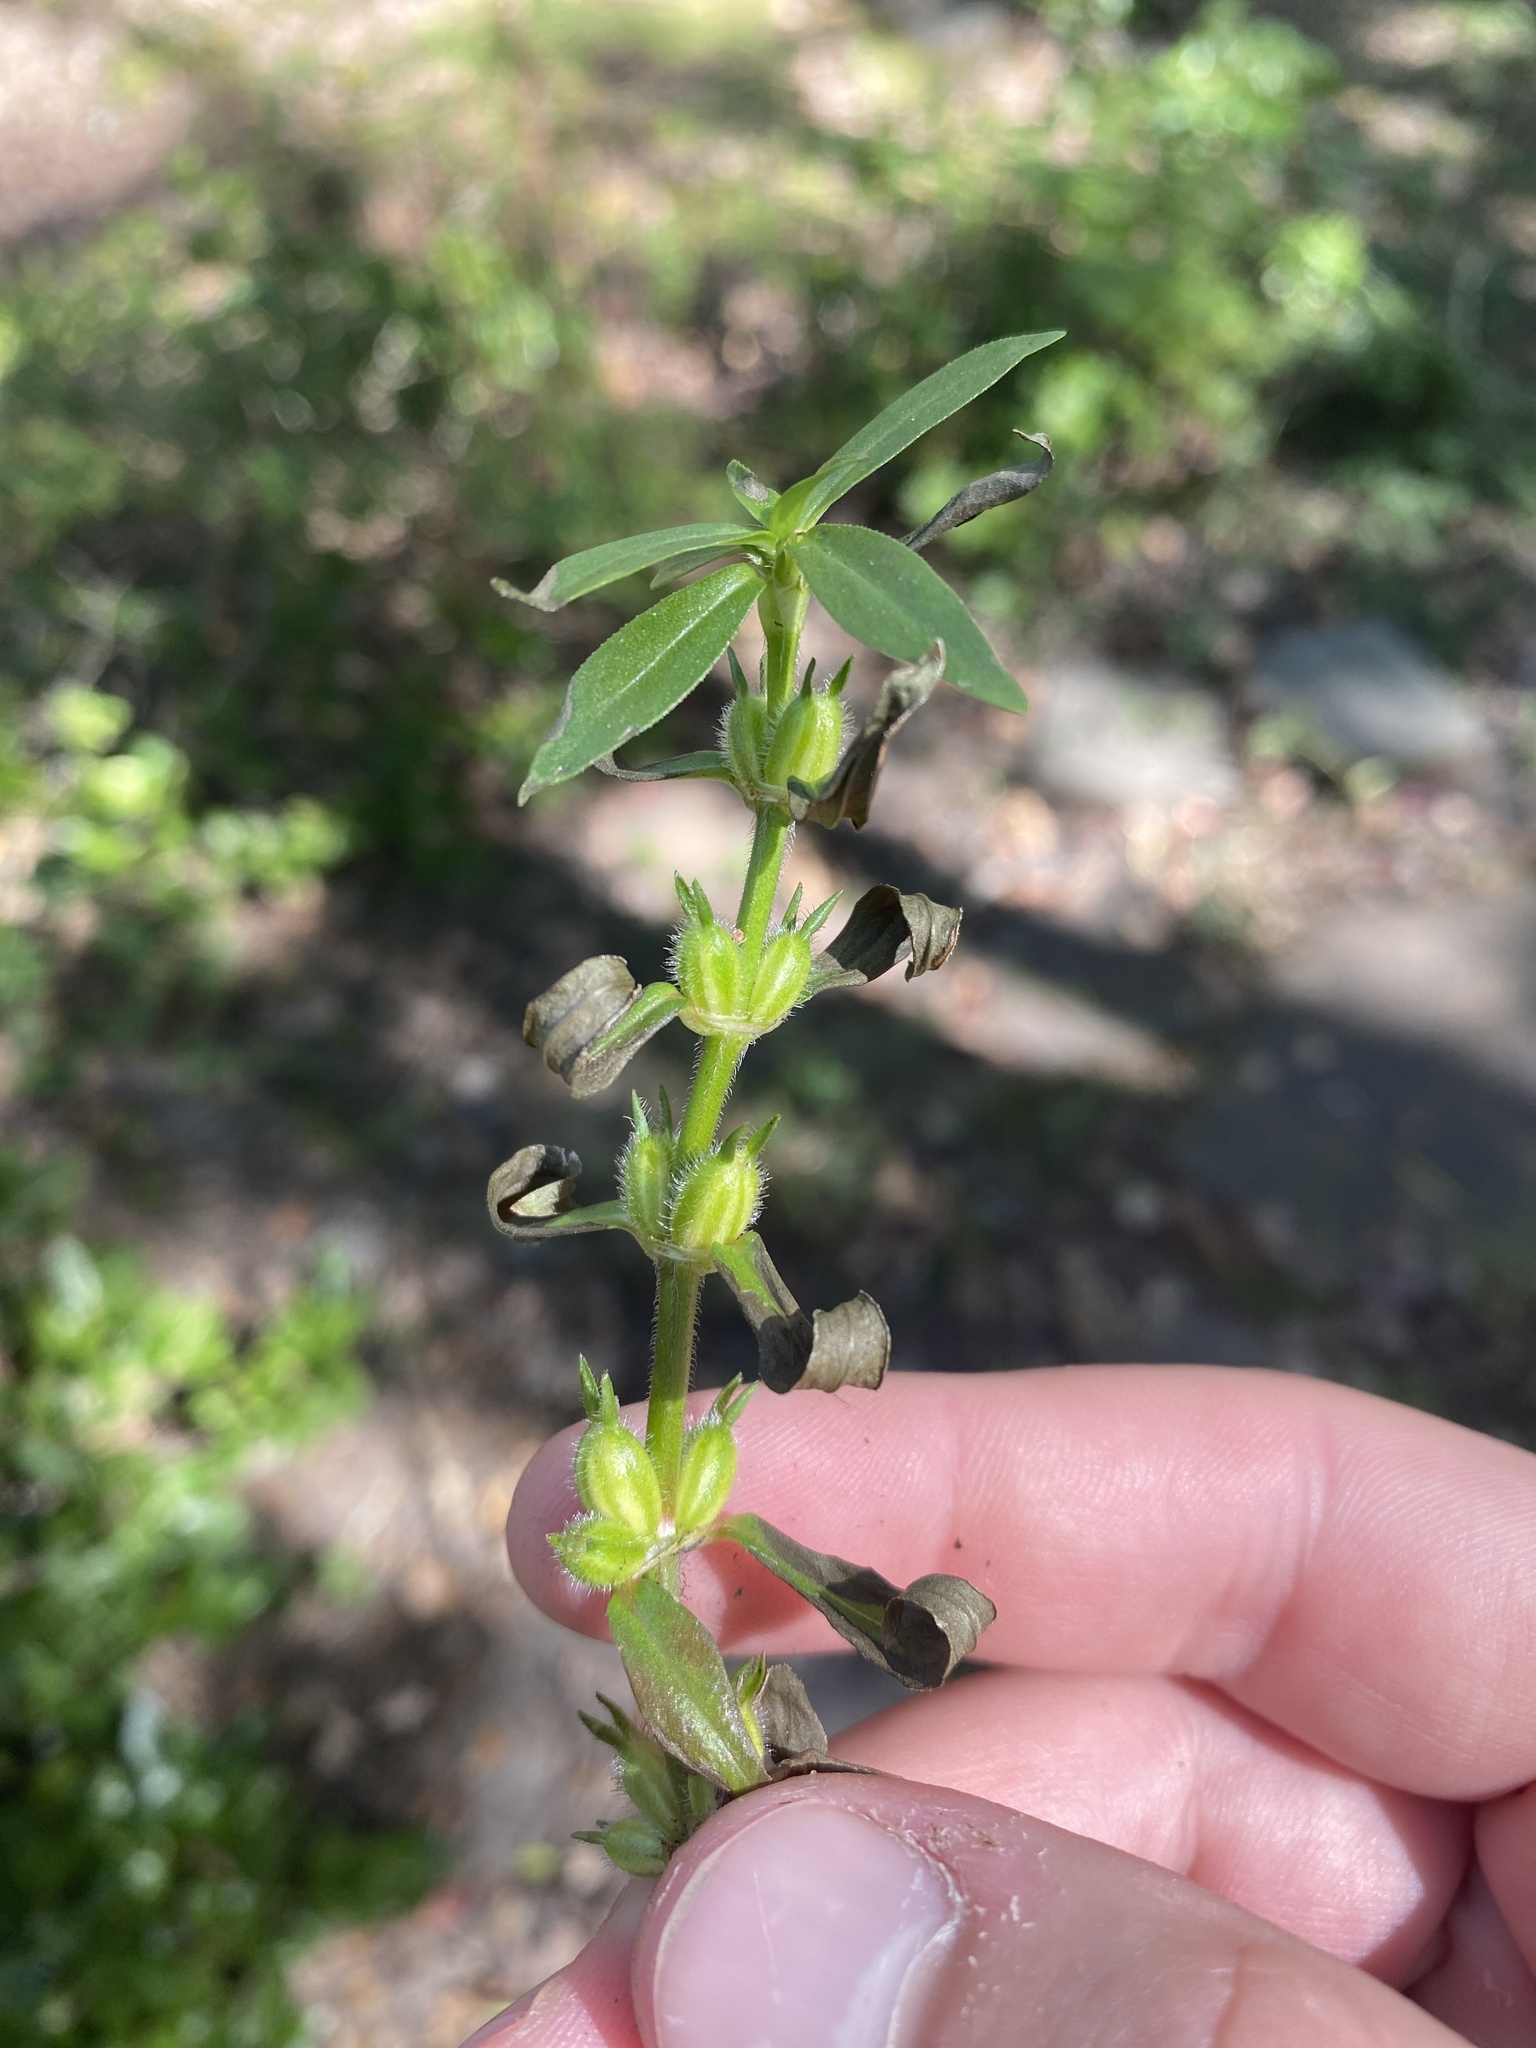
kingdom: Plantae
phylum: Tracheophyta
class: Magnoliopsida
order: Gentianales
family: Rubiaceae
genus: Diodia
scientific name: Diodia virginiana
